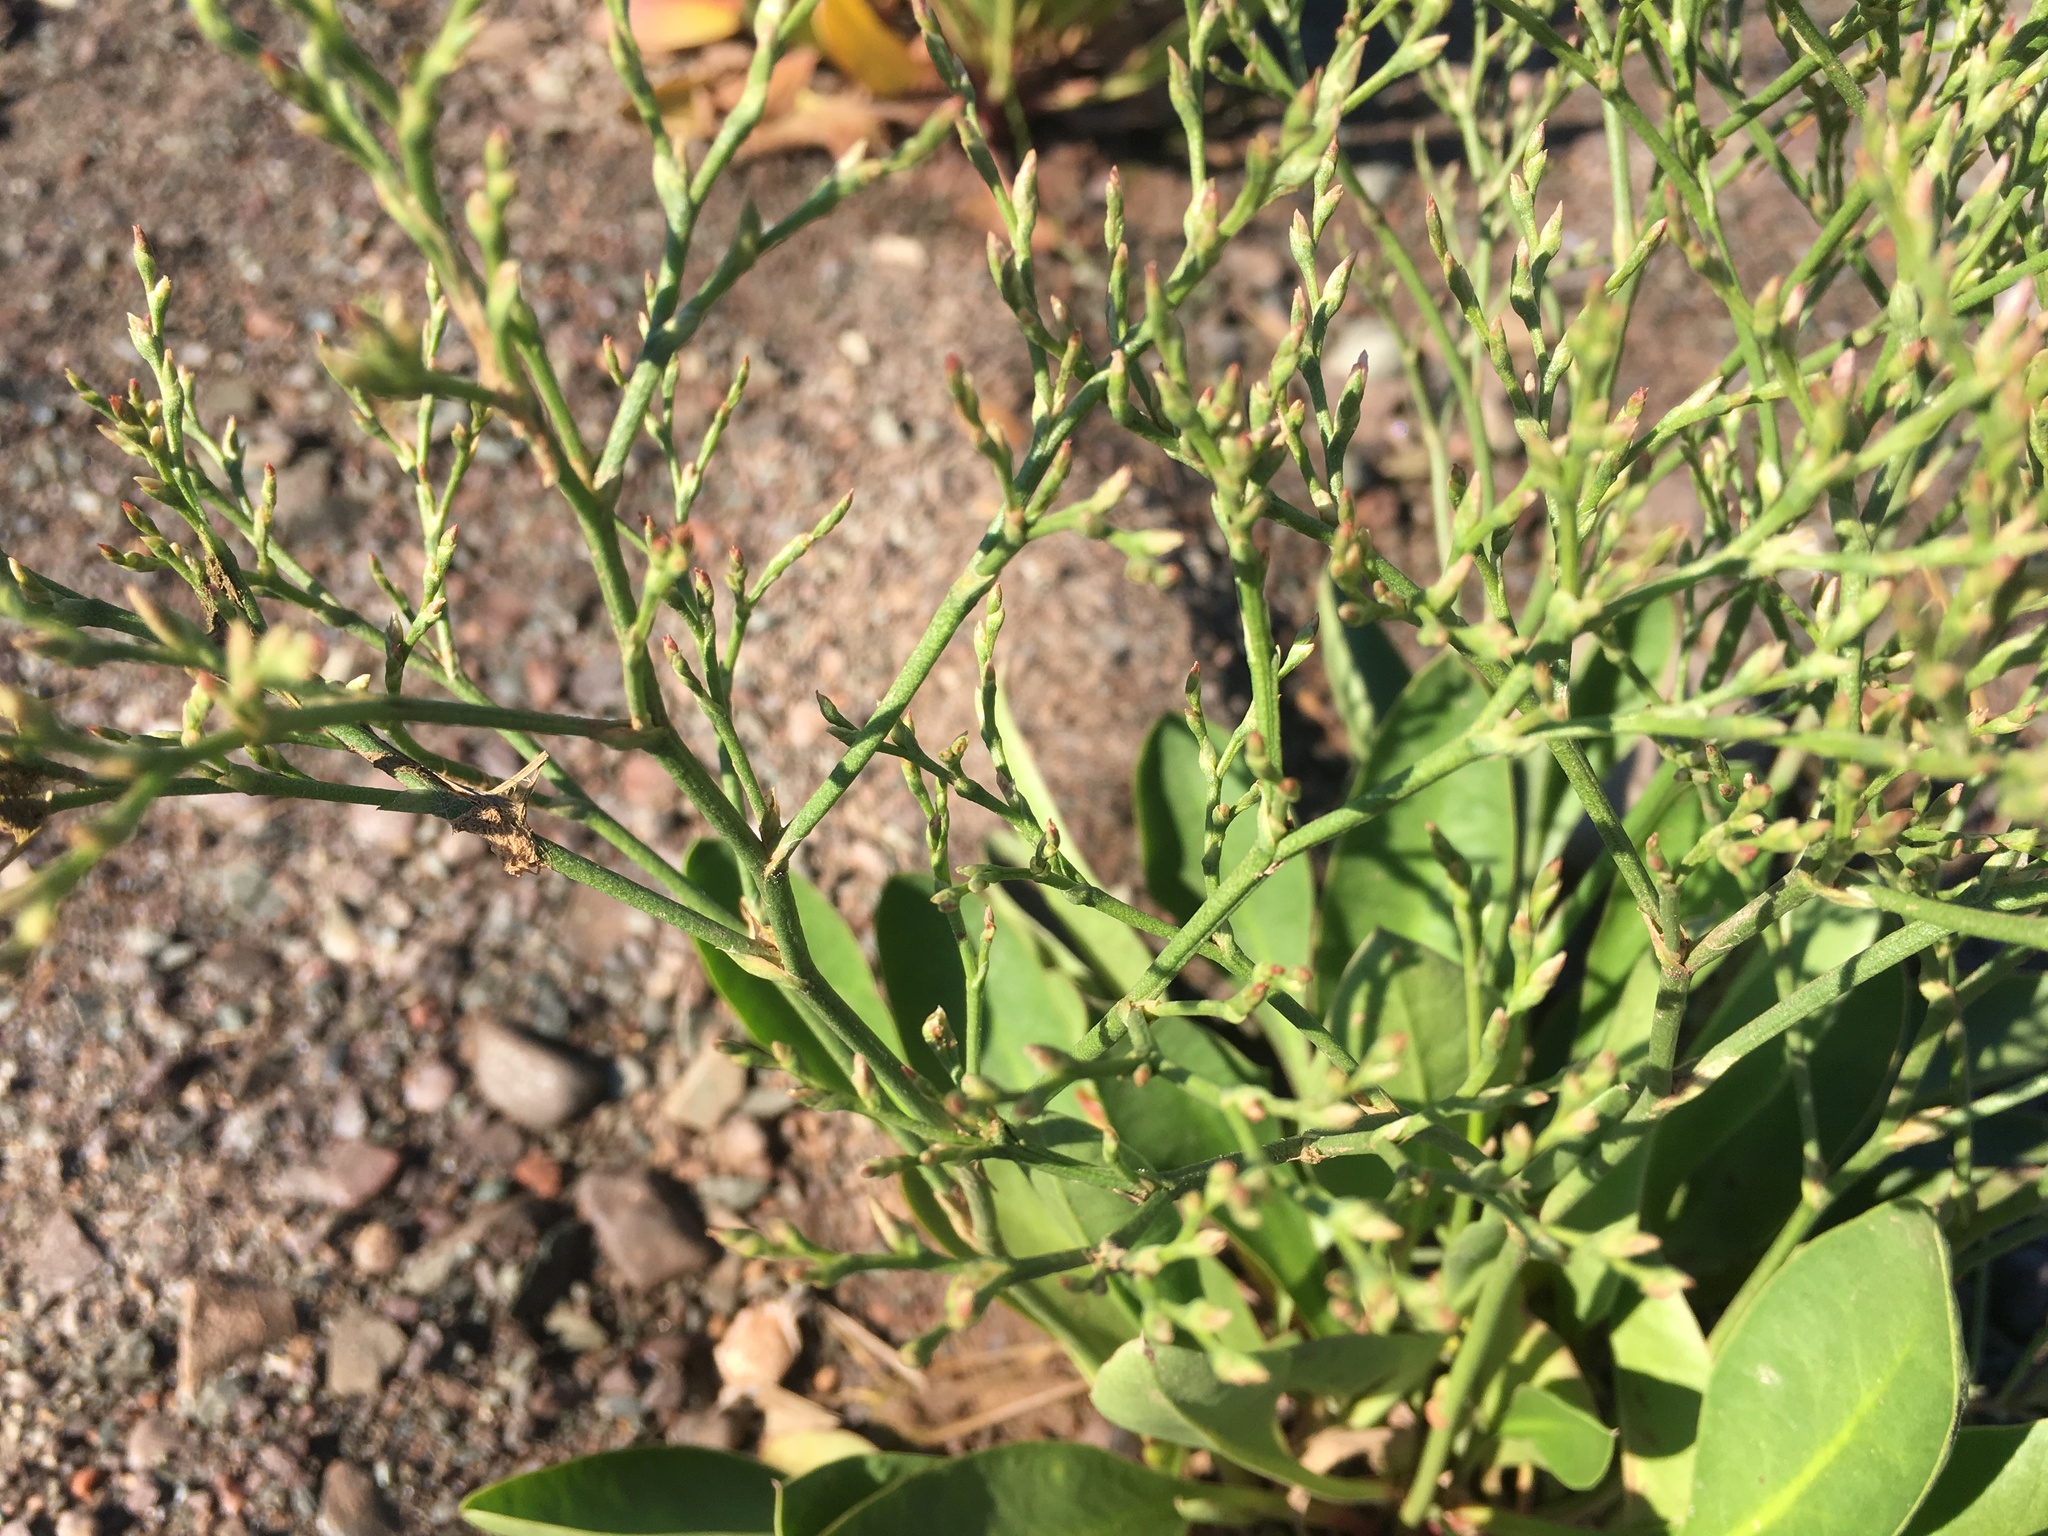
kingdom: Plantae
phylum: Tracheophyta
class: Magnoliopsida
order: Caryophyllales
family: Plumbaginaceae
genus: Limonium
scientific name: Limonium carolinianum
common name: Carolina sea lavender
